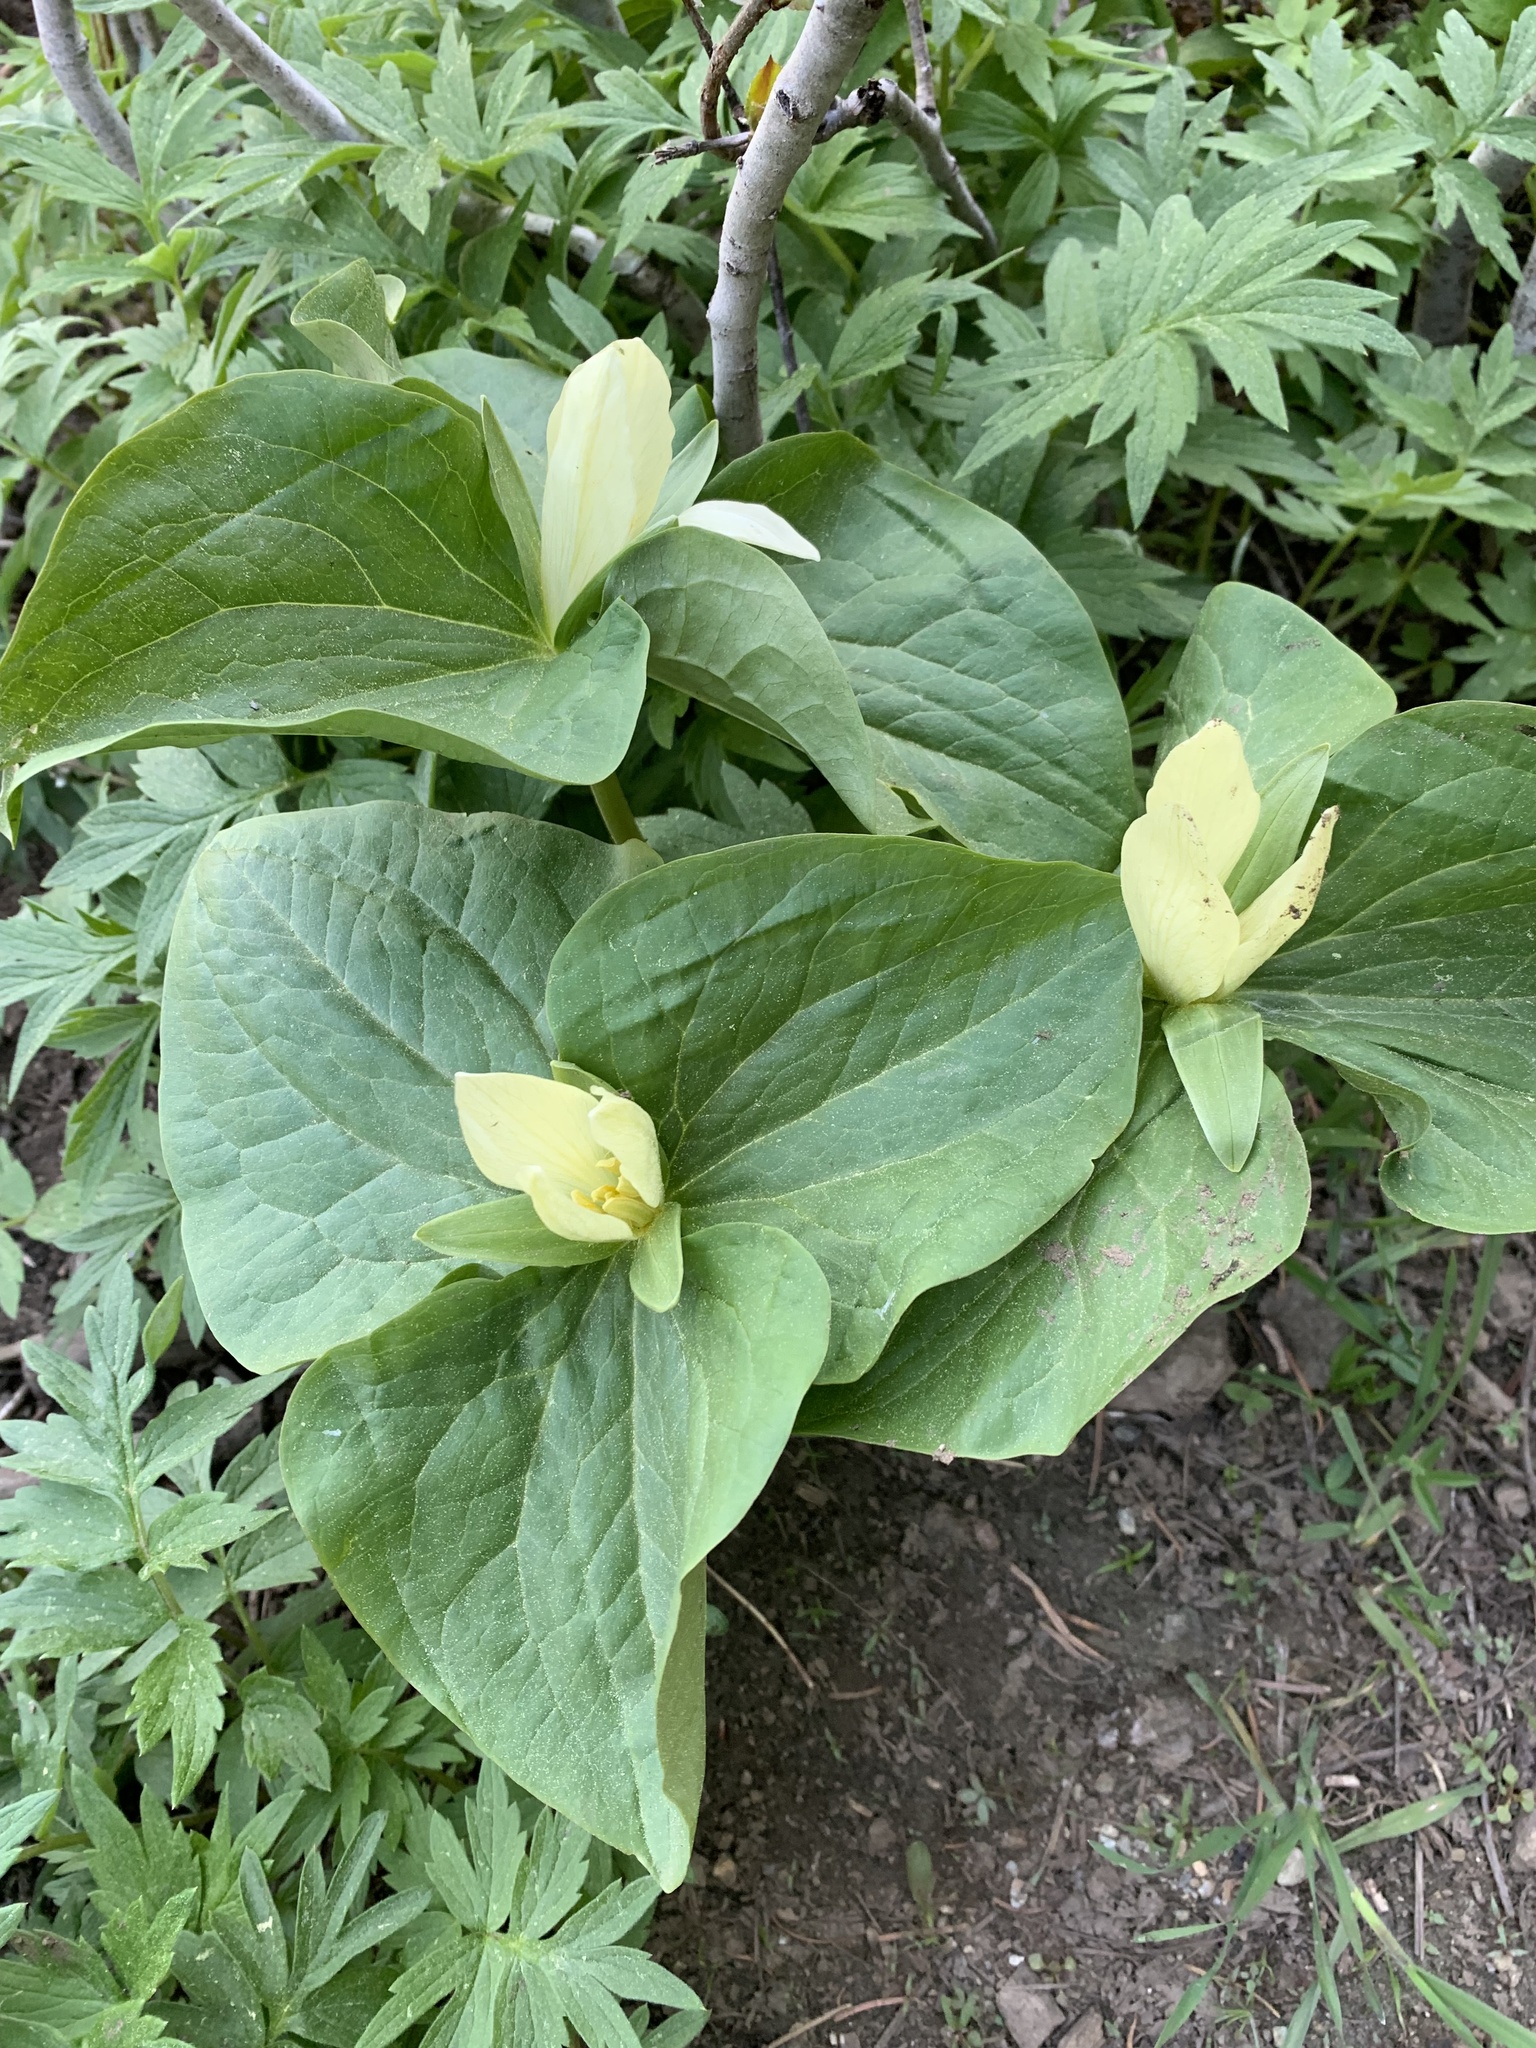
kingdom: Plantae
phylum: Tracheophyta
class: Liliopsida
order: Liliales
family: Melanthiaceae
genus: Trillium
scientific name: Trillium albidum
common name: Freeman's trillium
